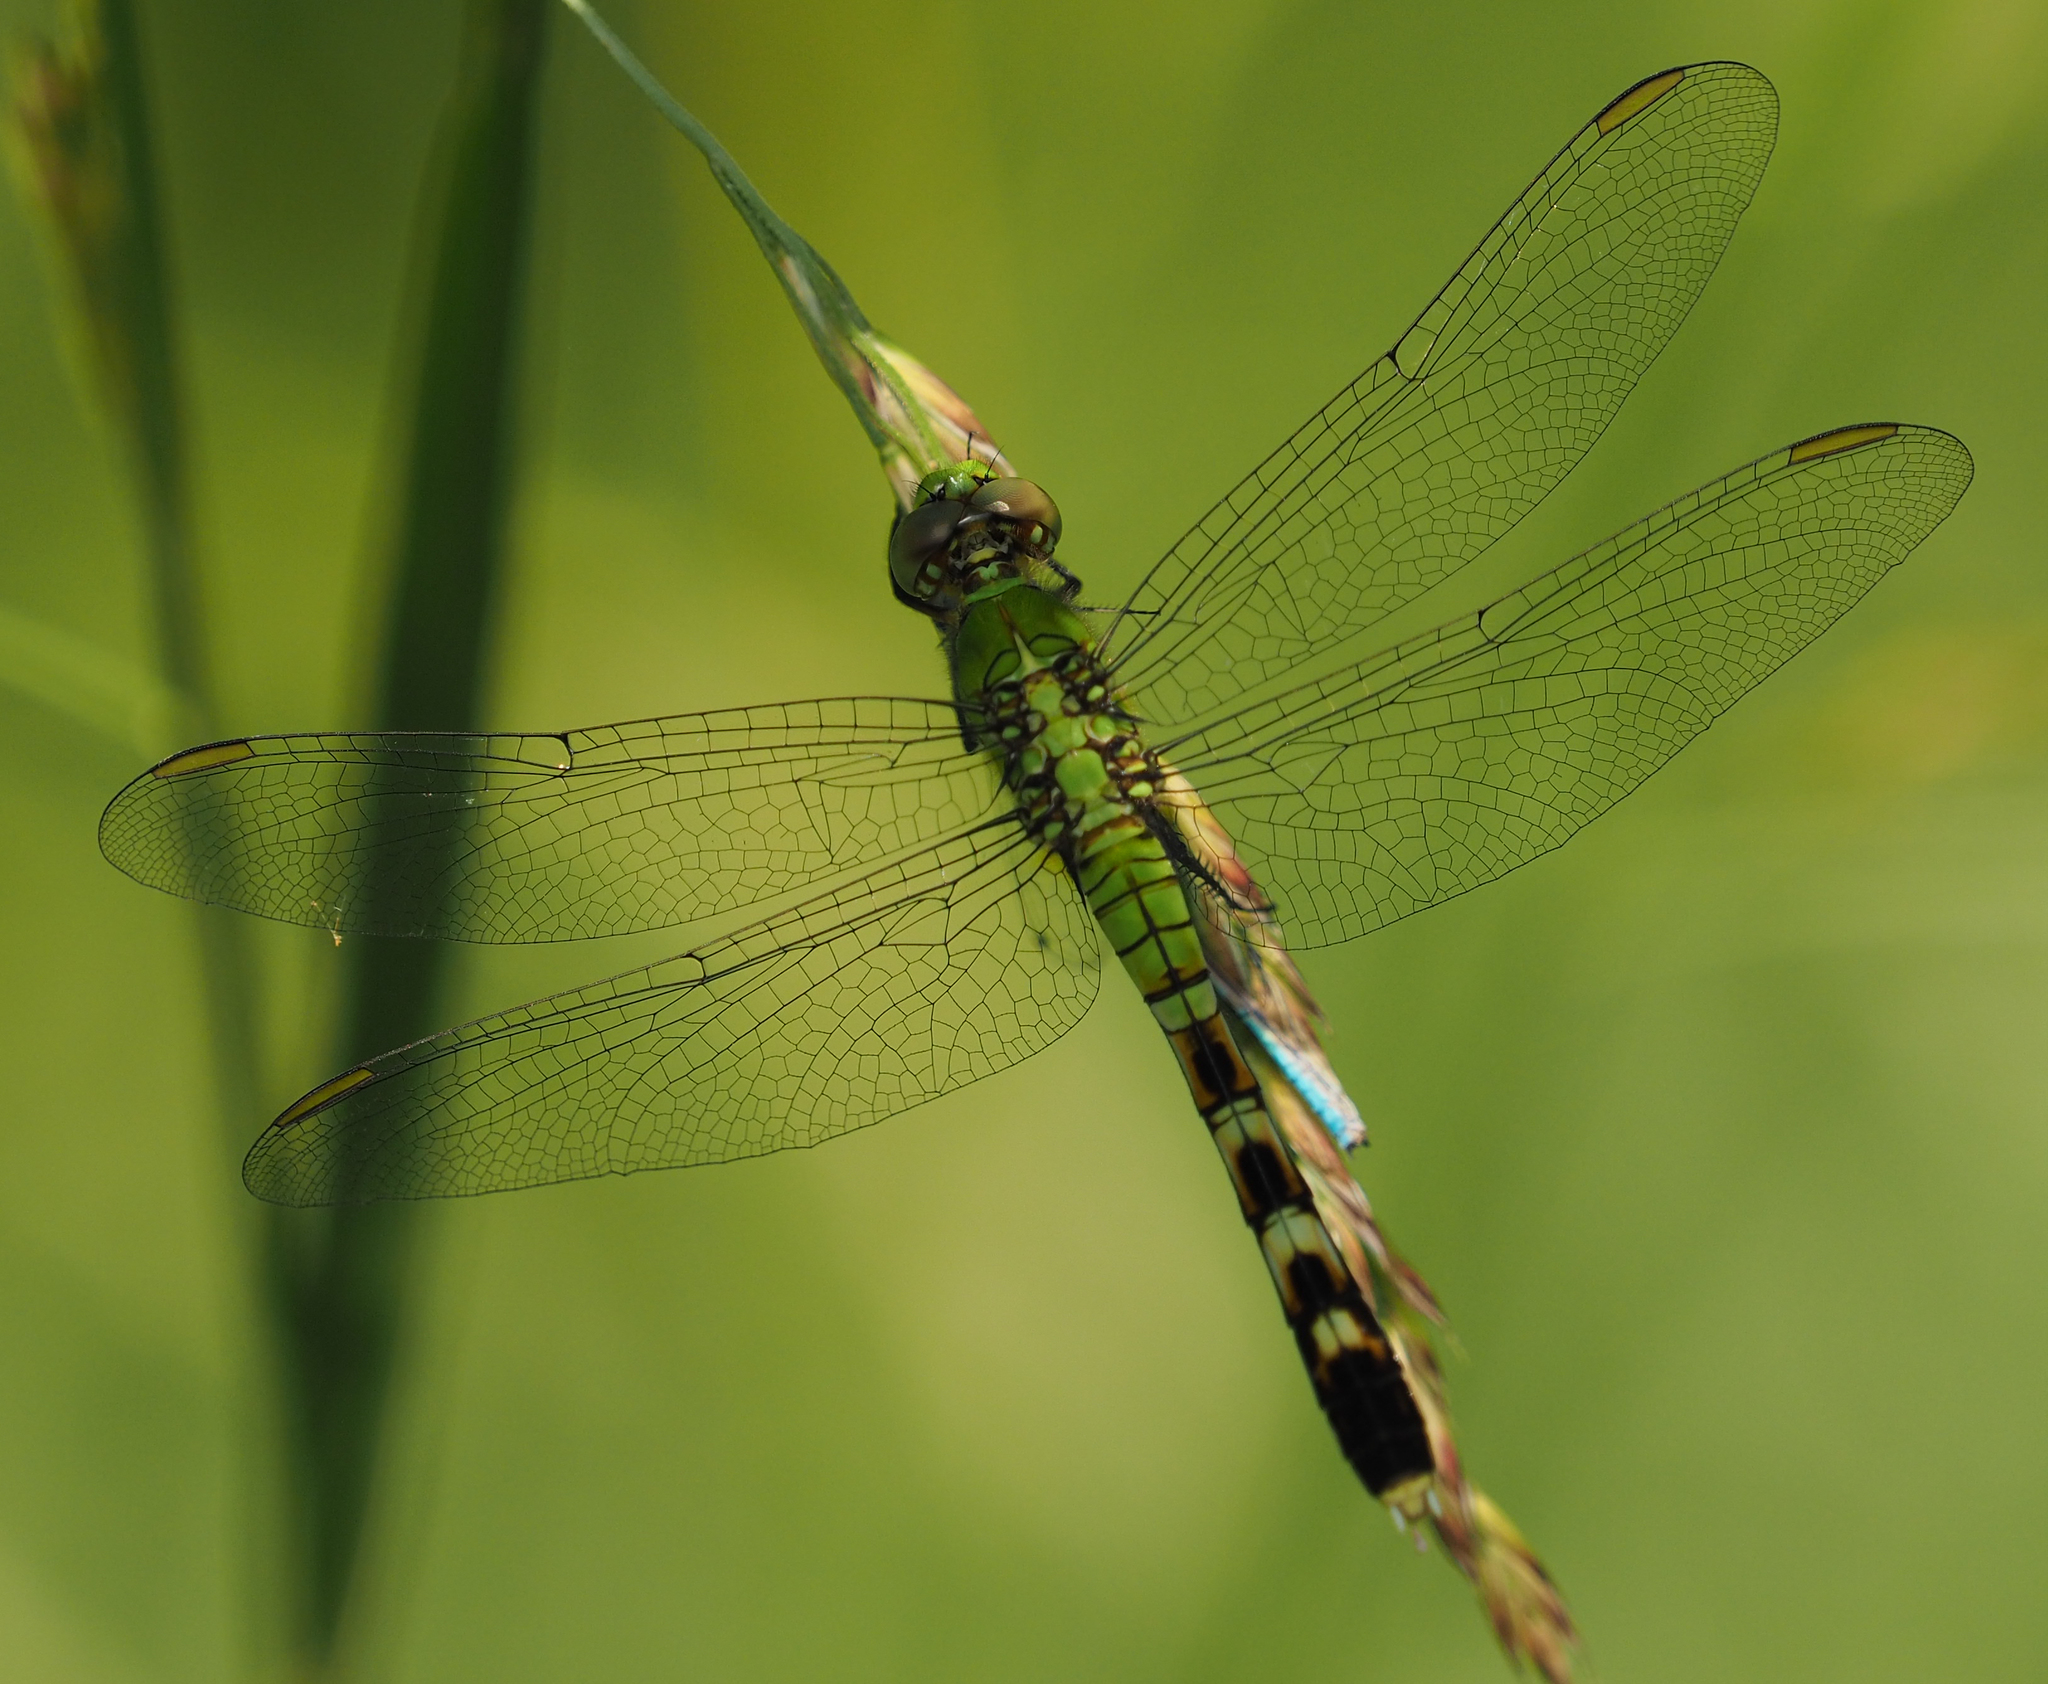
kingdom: Animalia
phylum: Arthropoda
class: Insecta
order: Odonata
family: Libellulidae
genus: Erythemis
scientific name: Erythemis simplicicollis
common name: Eastern pondhawk
